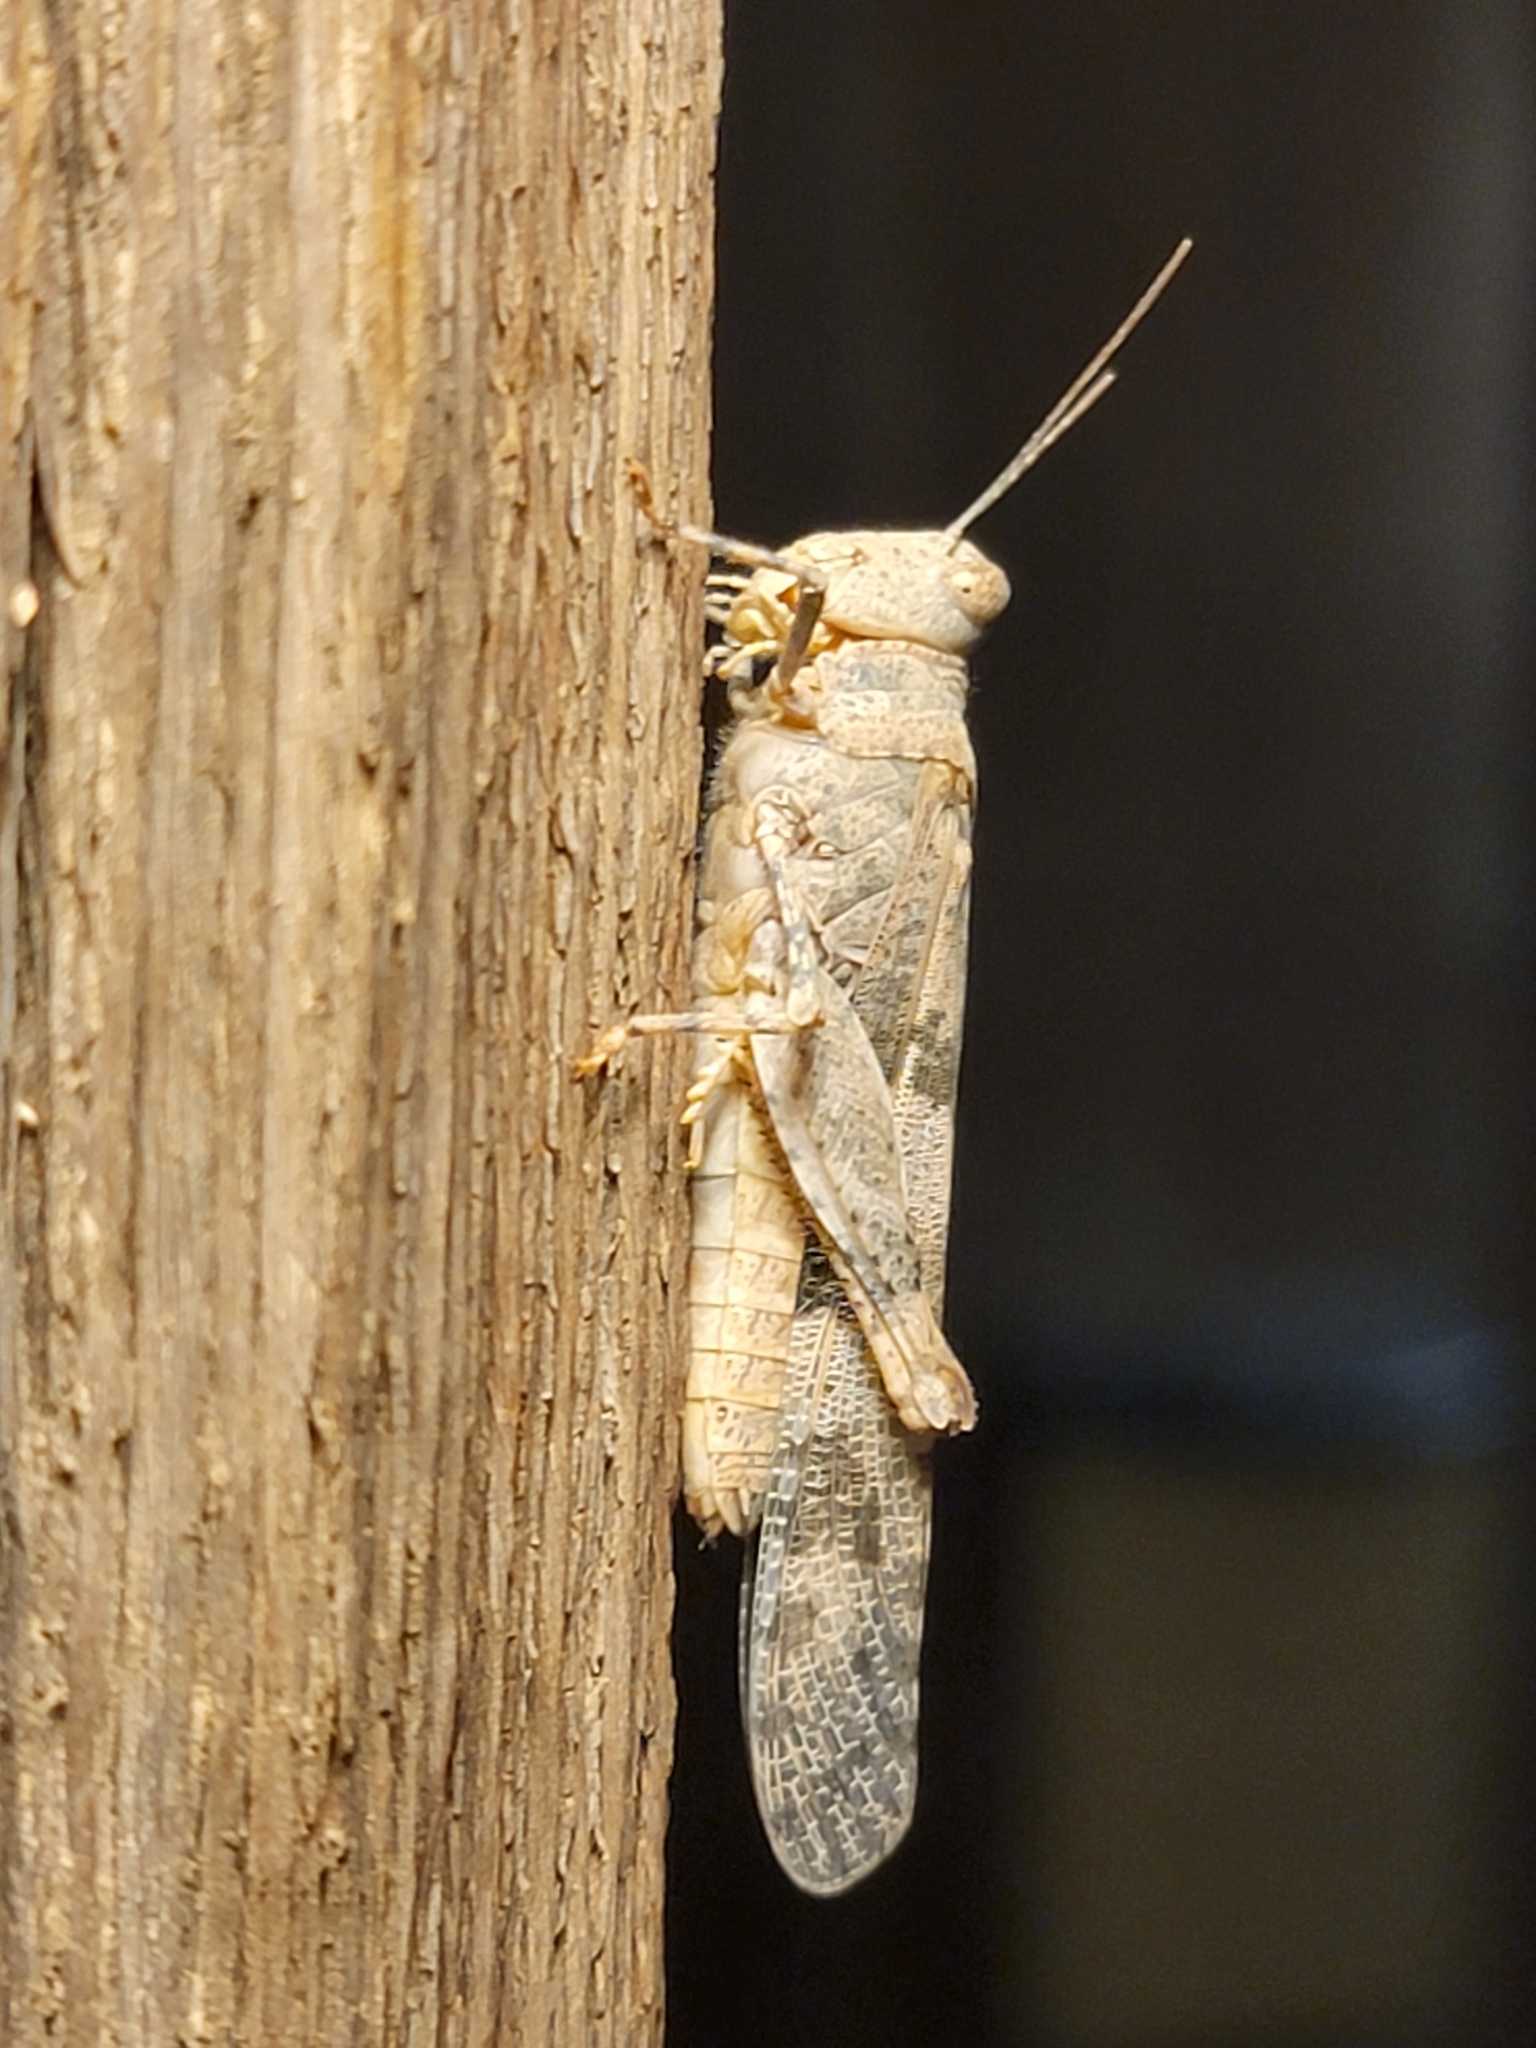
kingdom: Animalia
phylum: Arthropoda
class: Insecta
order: Orthoptera
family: Acrididae
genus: Trimerotropis
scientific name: Trimerotropis pallidipennis
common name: Pallid-winged grasshopper
